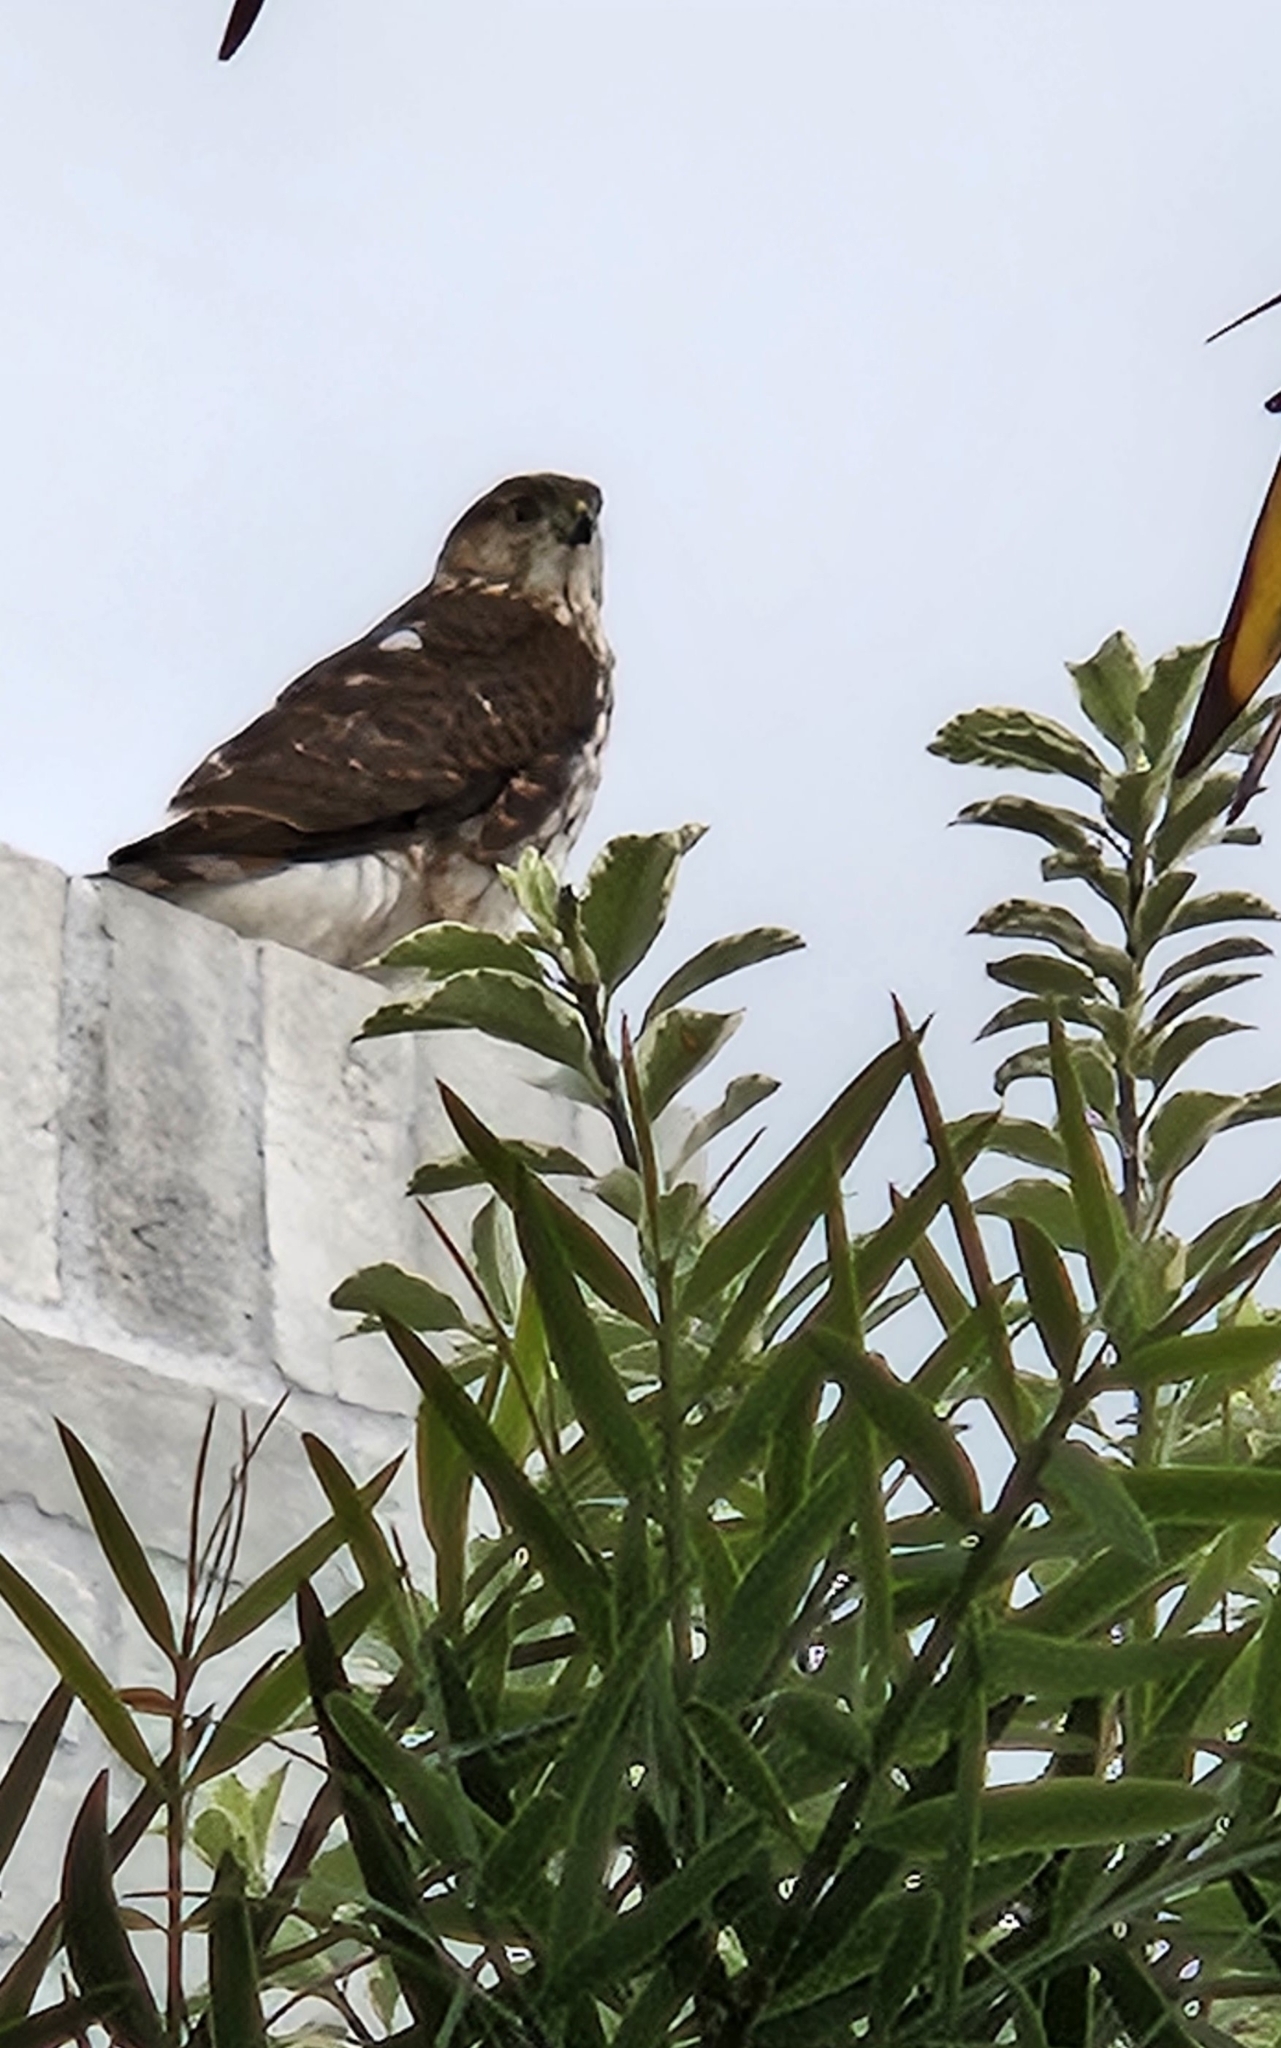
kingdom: Animalia
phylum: Chordata
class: Aves
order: Accipitriformes
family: Accipitridae
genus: Accipiter
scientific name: Accipiter cooperii
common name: Cooper's hawk
